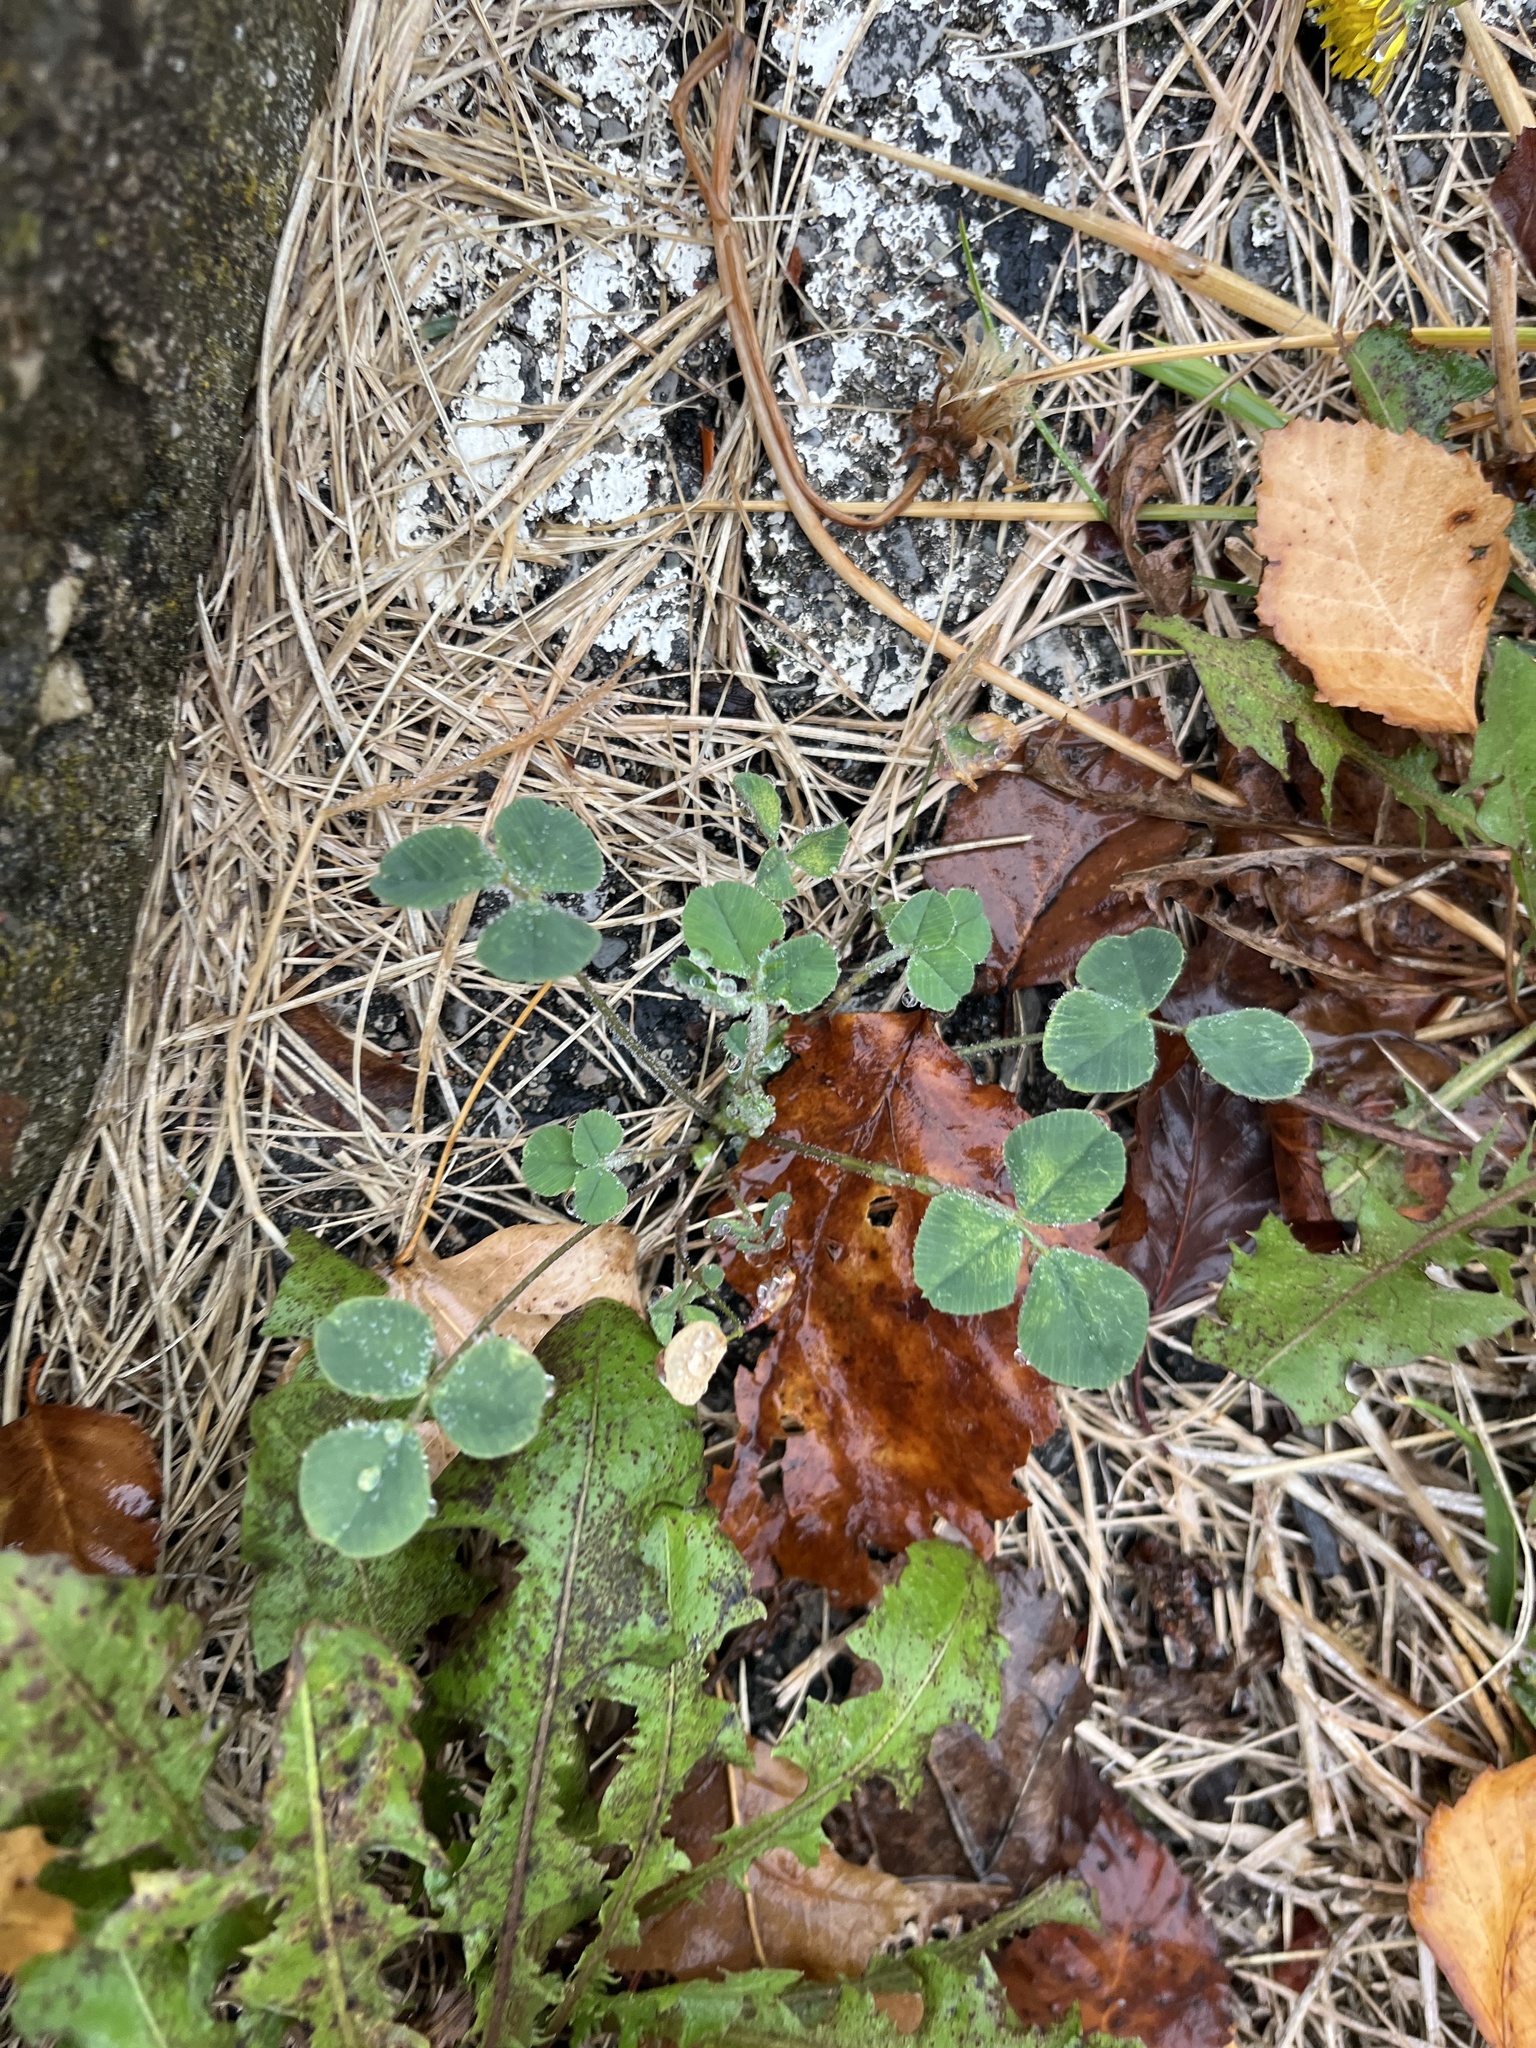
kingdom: Plantae
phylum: Tracheophyta
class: Magnoliopsida
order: Fabales
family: Fabaceae
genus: Medicago
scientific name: Medicago lupulina
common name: Black medick
